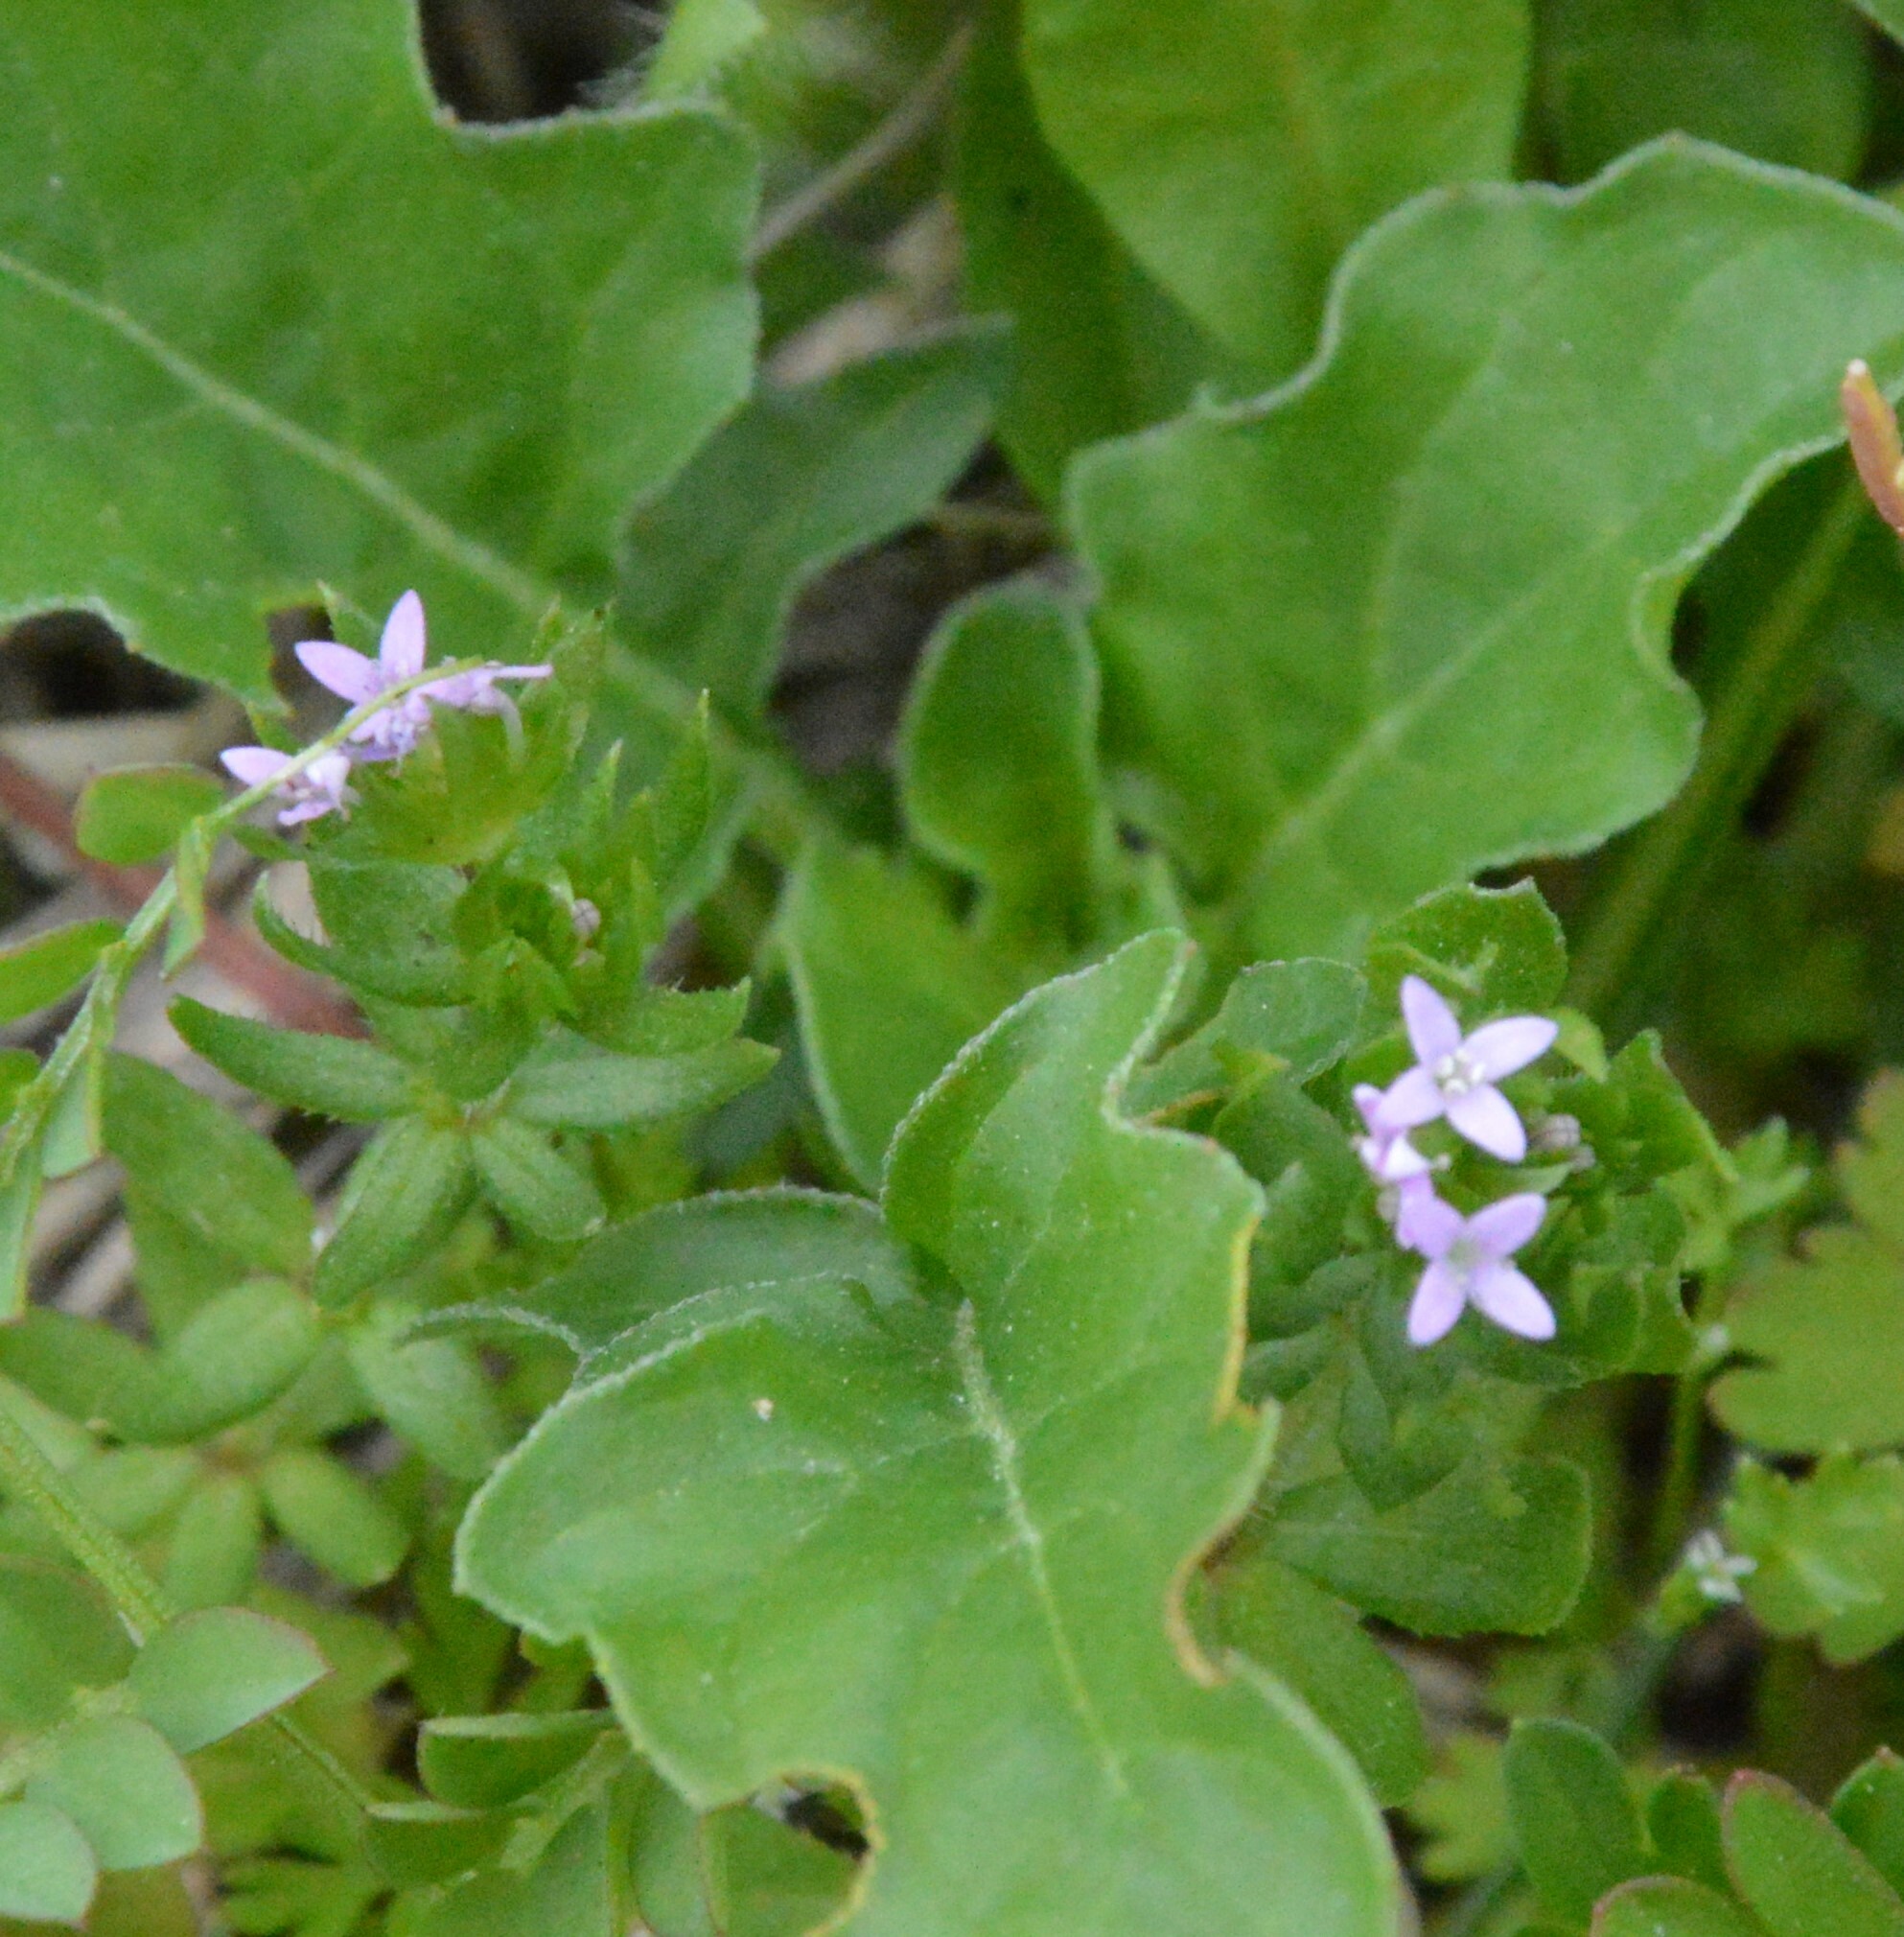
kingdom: Plantae
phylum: Tracheophyta
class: Magnoliopsida
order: Gentianales
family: Rubiaceae
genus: Sherardia
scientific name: Sherardia arvensis
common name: Field madder
